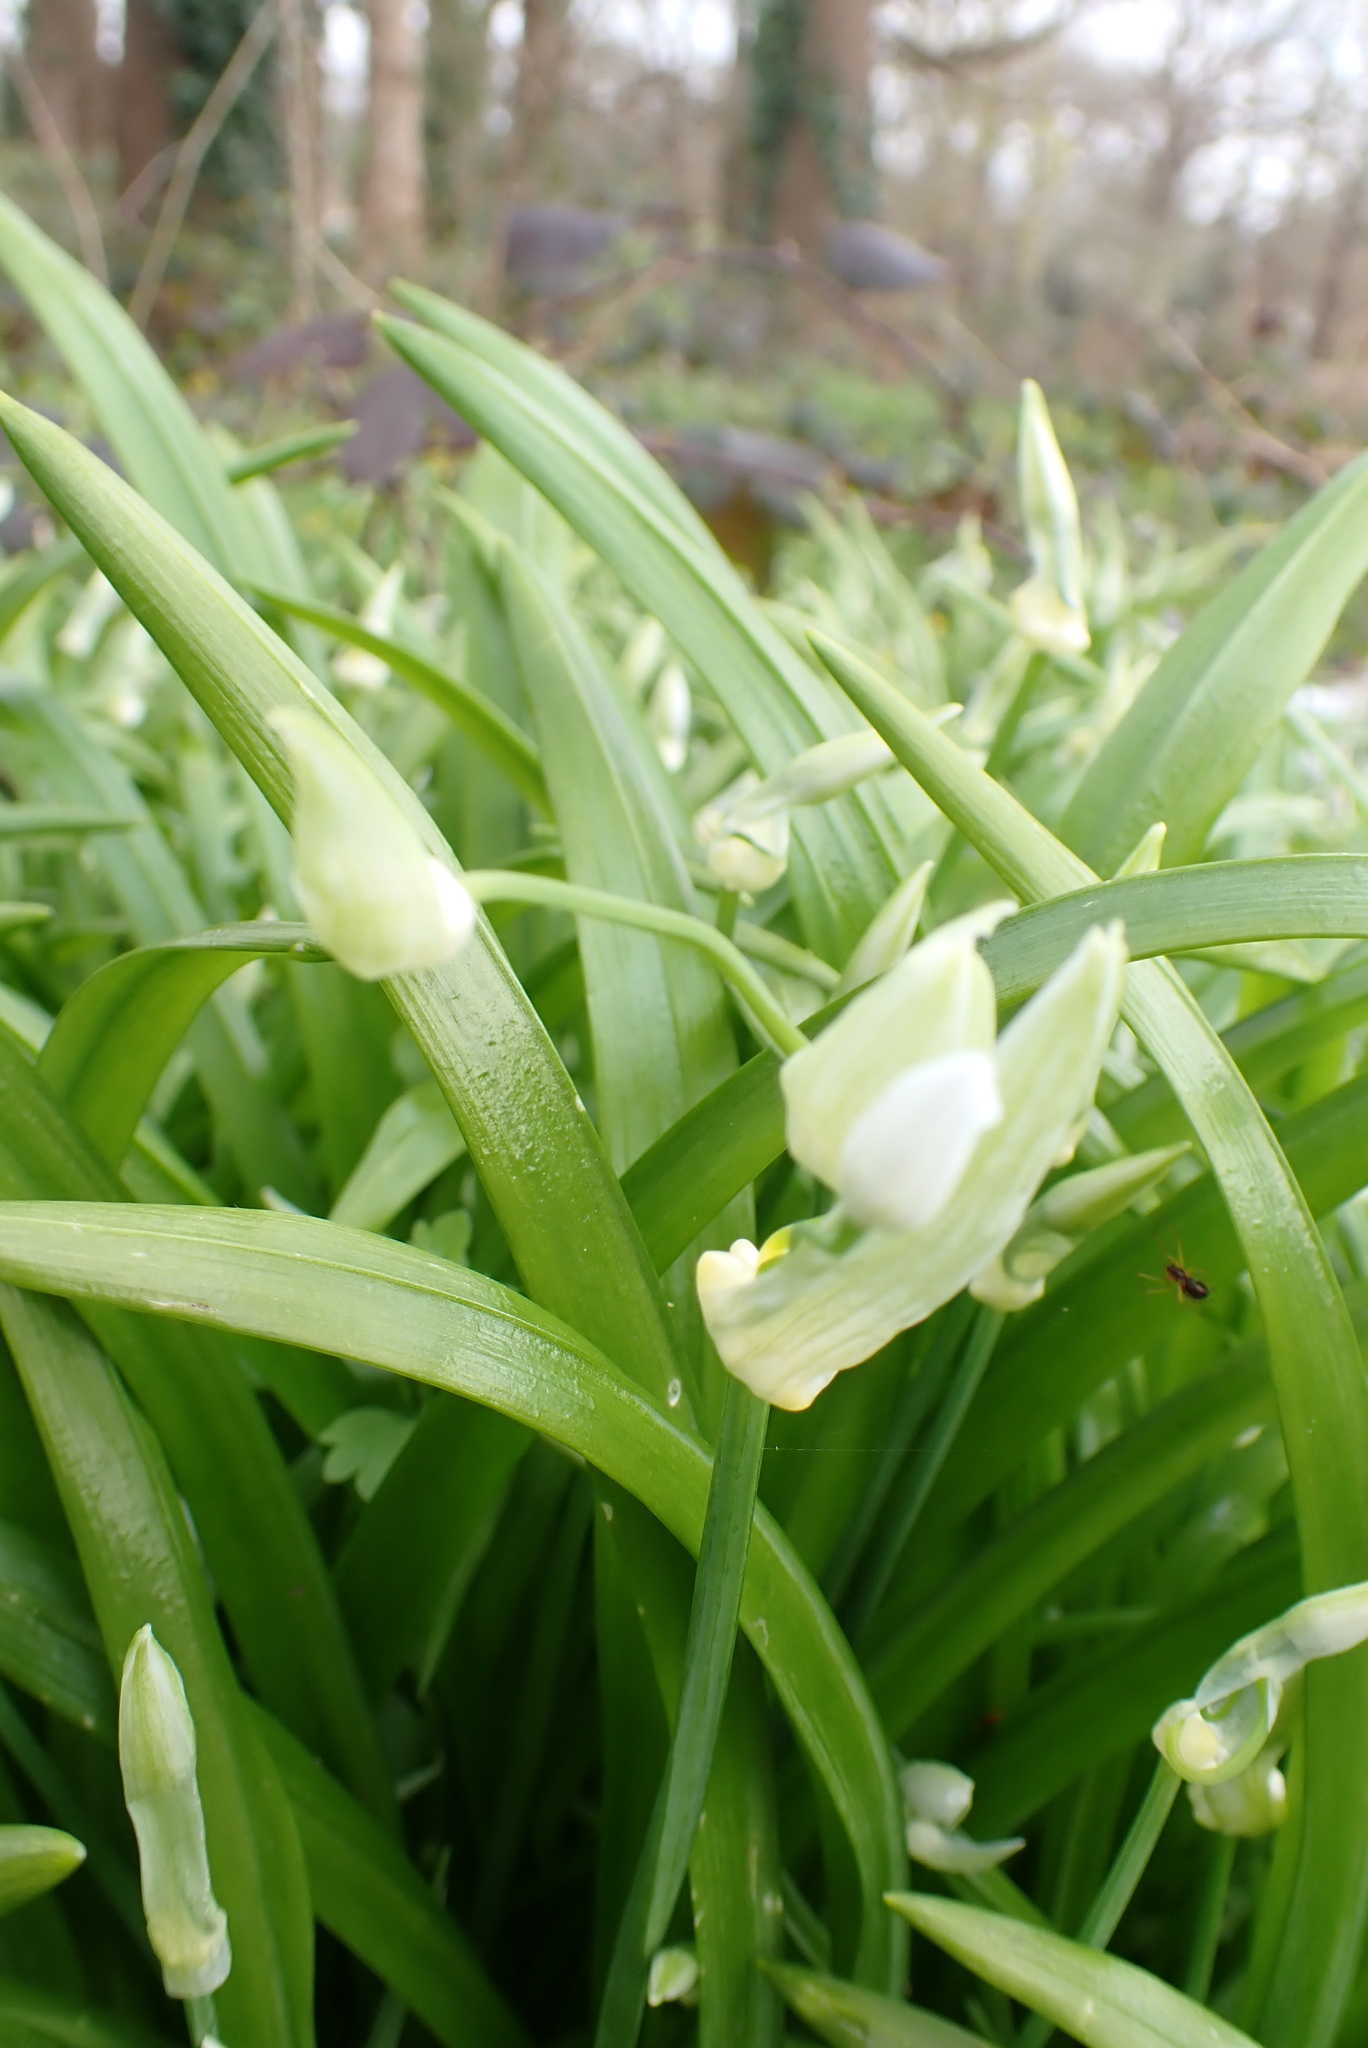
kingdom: Plantae
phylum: Tracheophyta
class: Liliopsida
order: Asparagales
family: Amaryllidaceae
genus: Allium
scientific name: Allium paradoxum
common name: Few-flowered garlic
